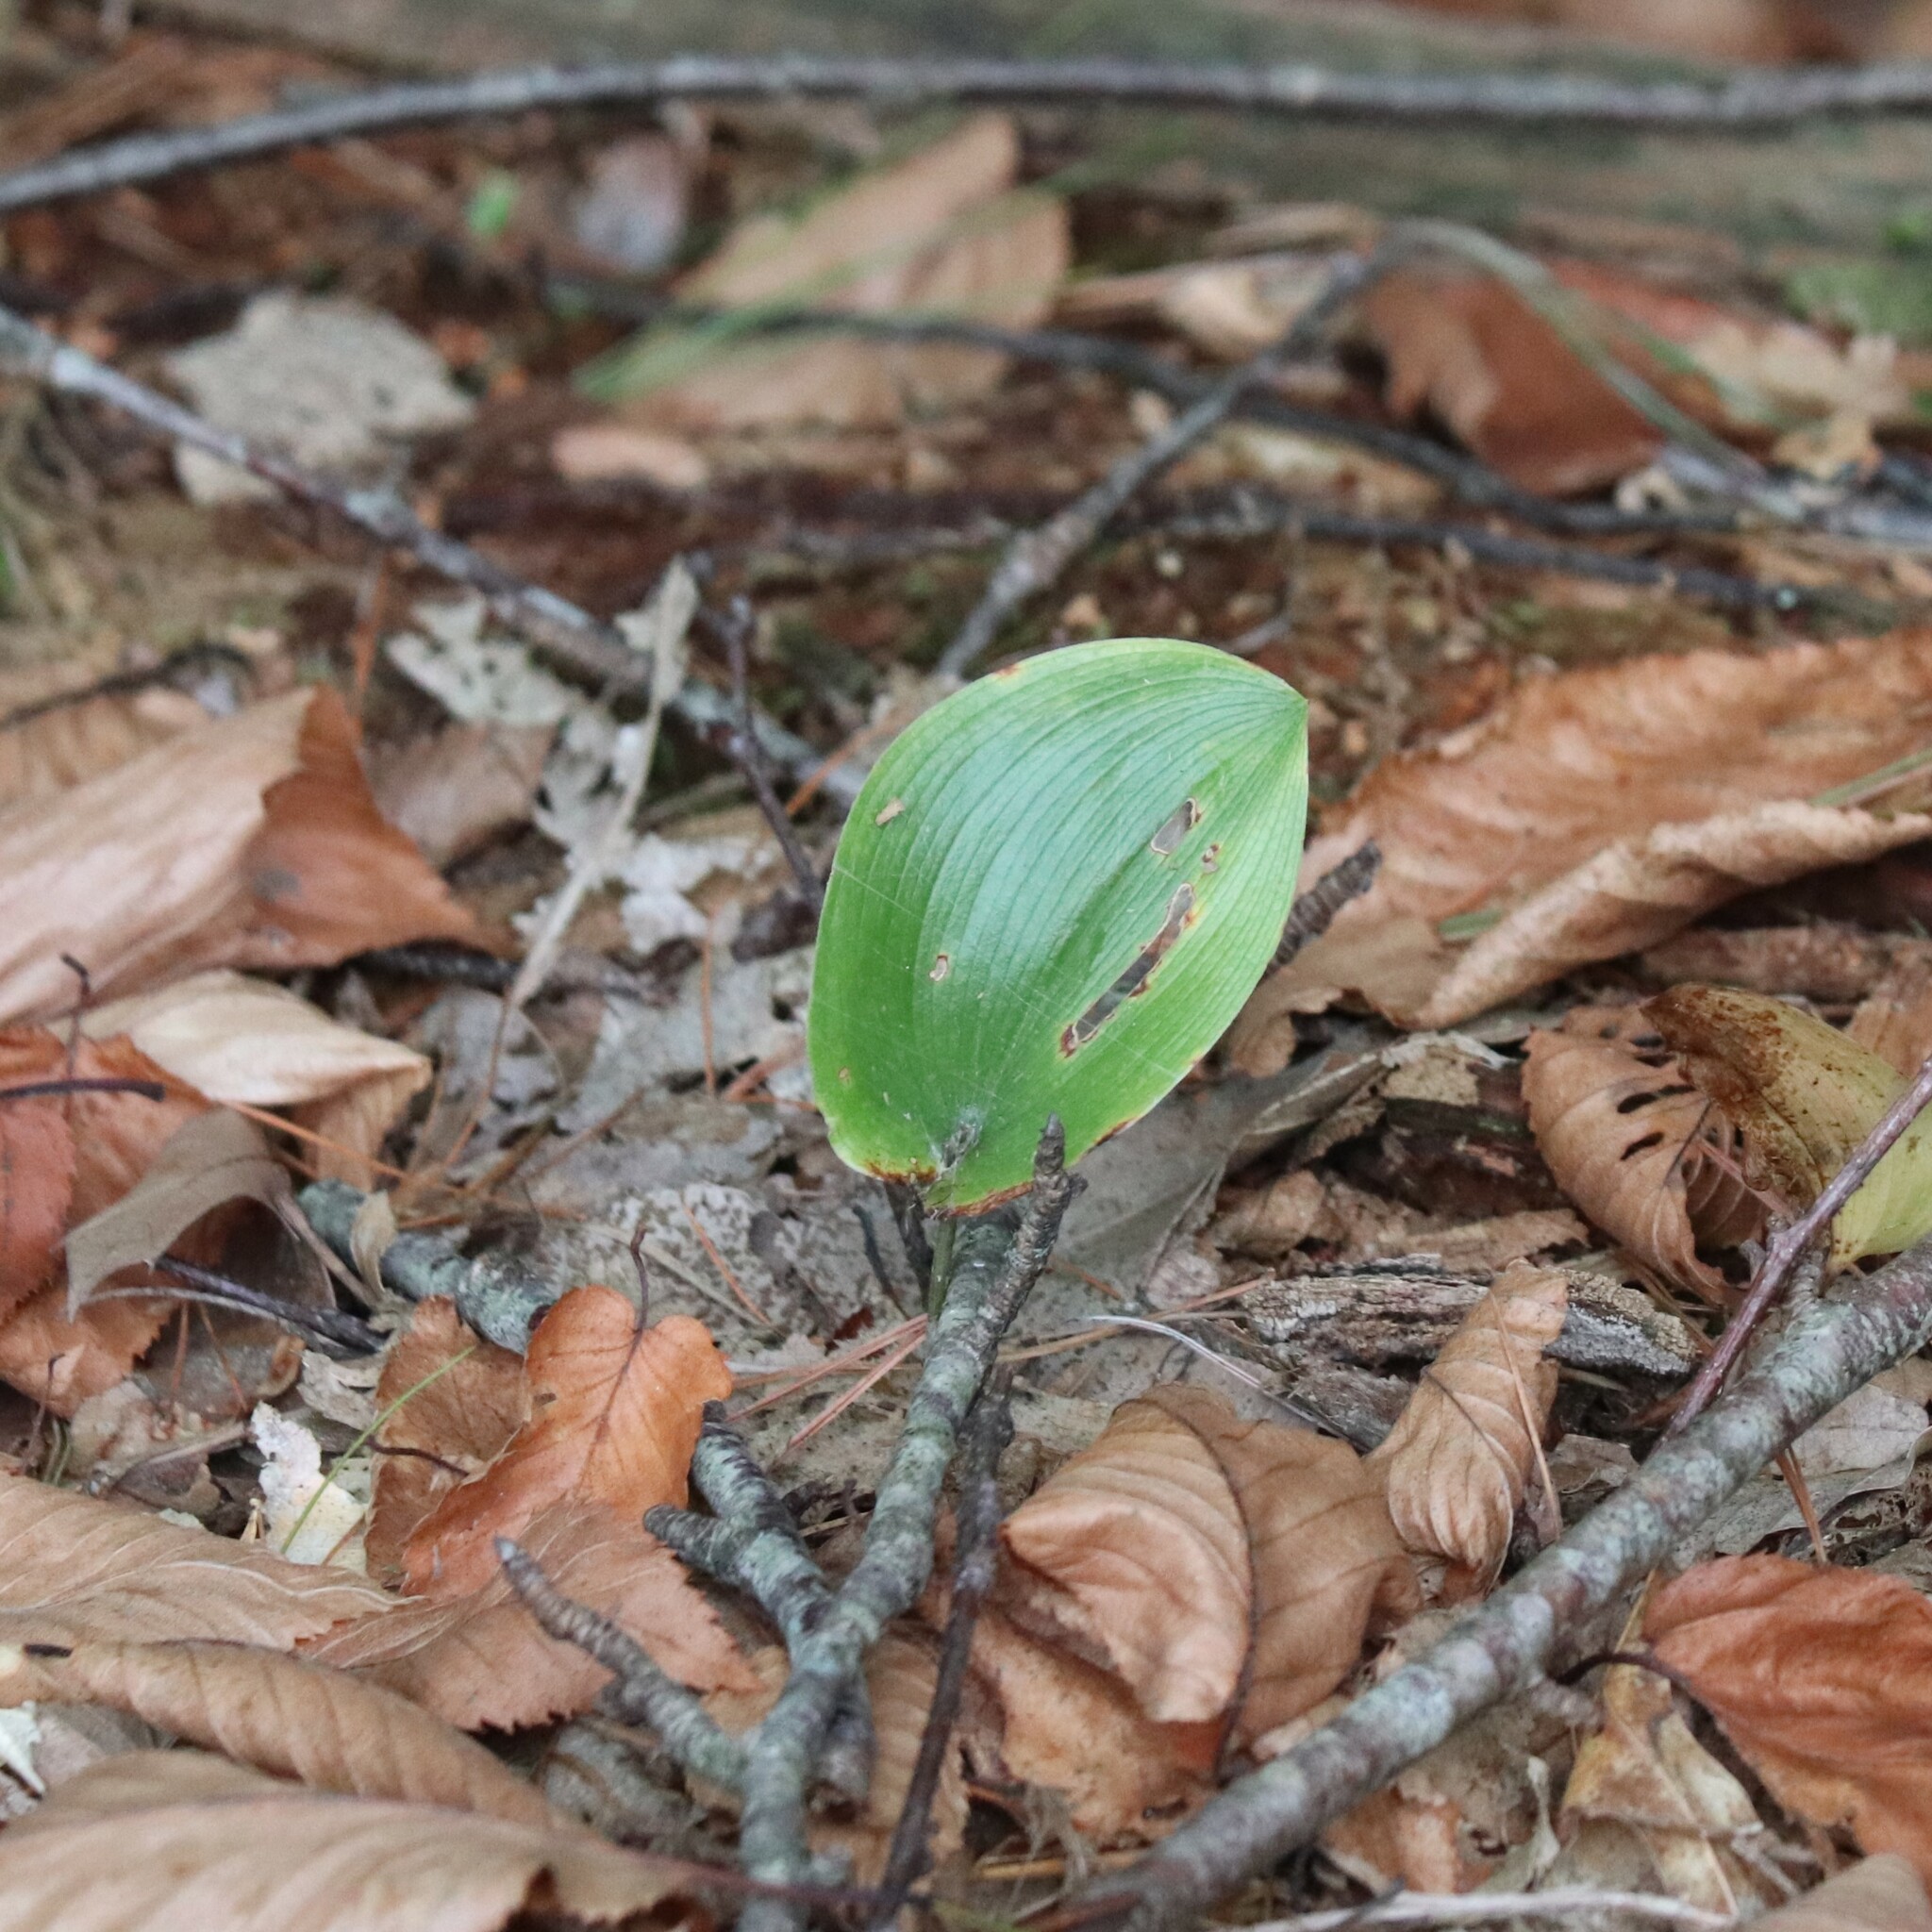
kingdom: Plantae
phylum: Tracheophyta
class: Liliopsida
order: Asparagales
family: Asparagaceae
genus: Maianthemum
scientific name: Maianthemum canadense
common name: False lily-of-the-valley
